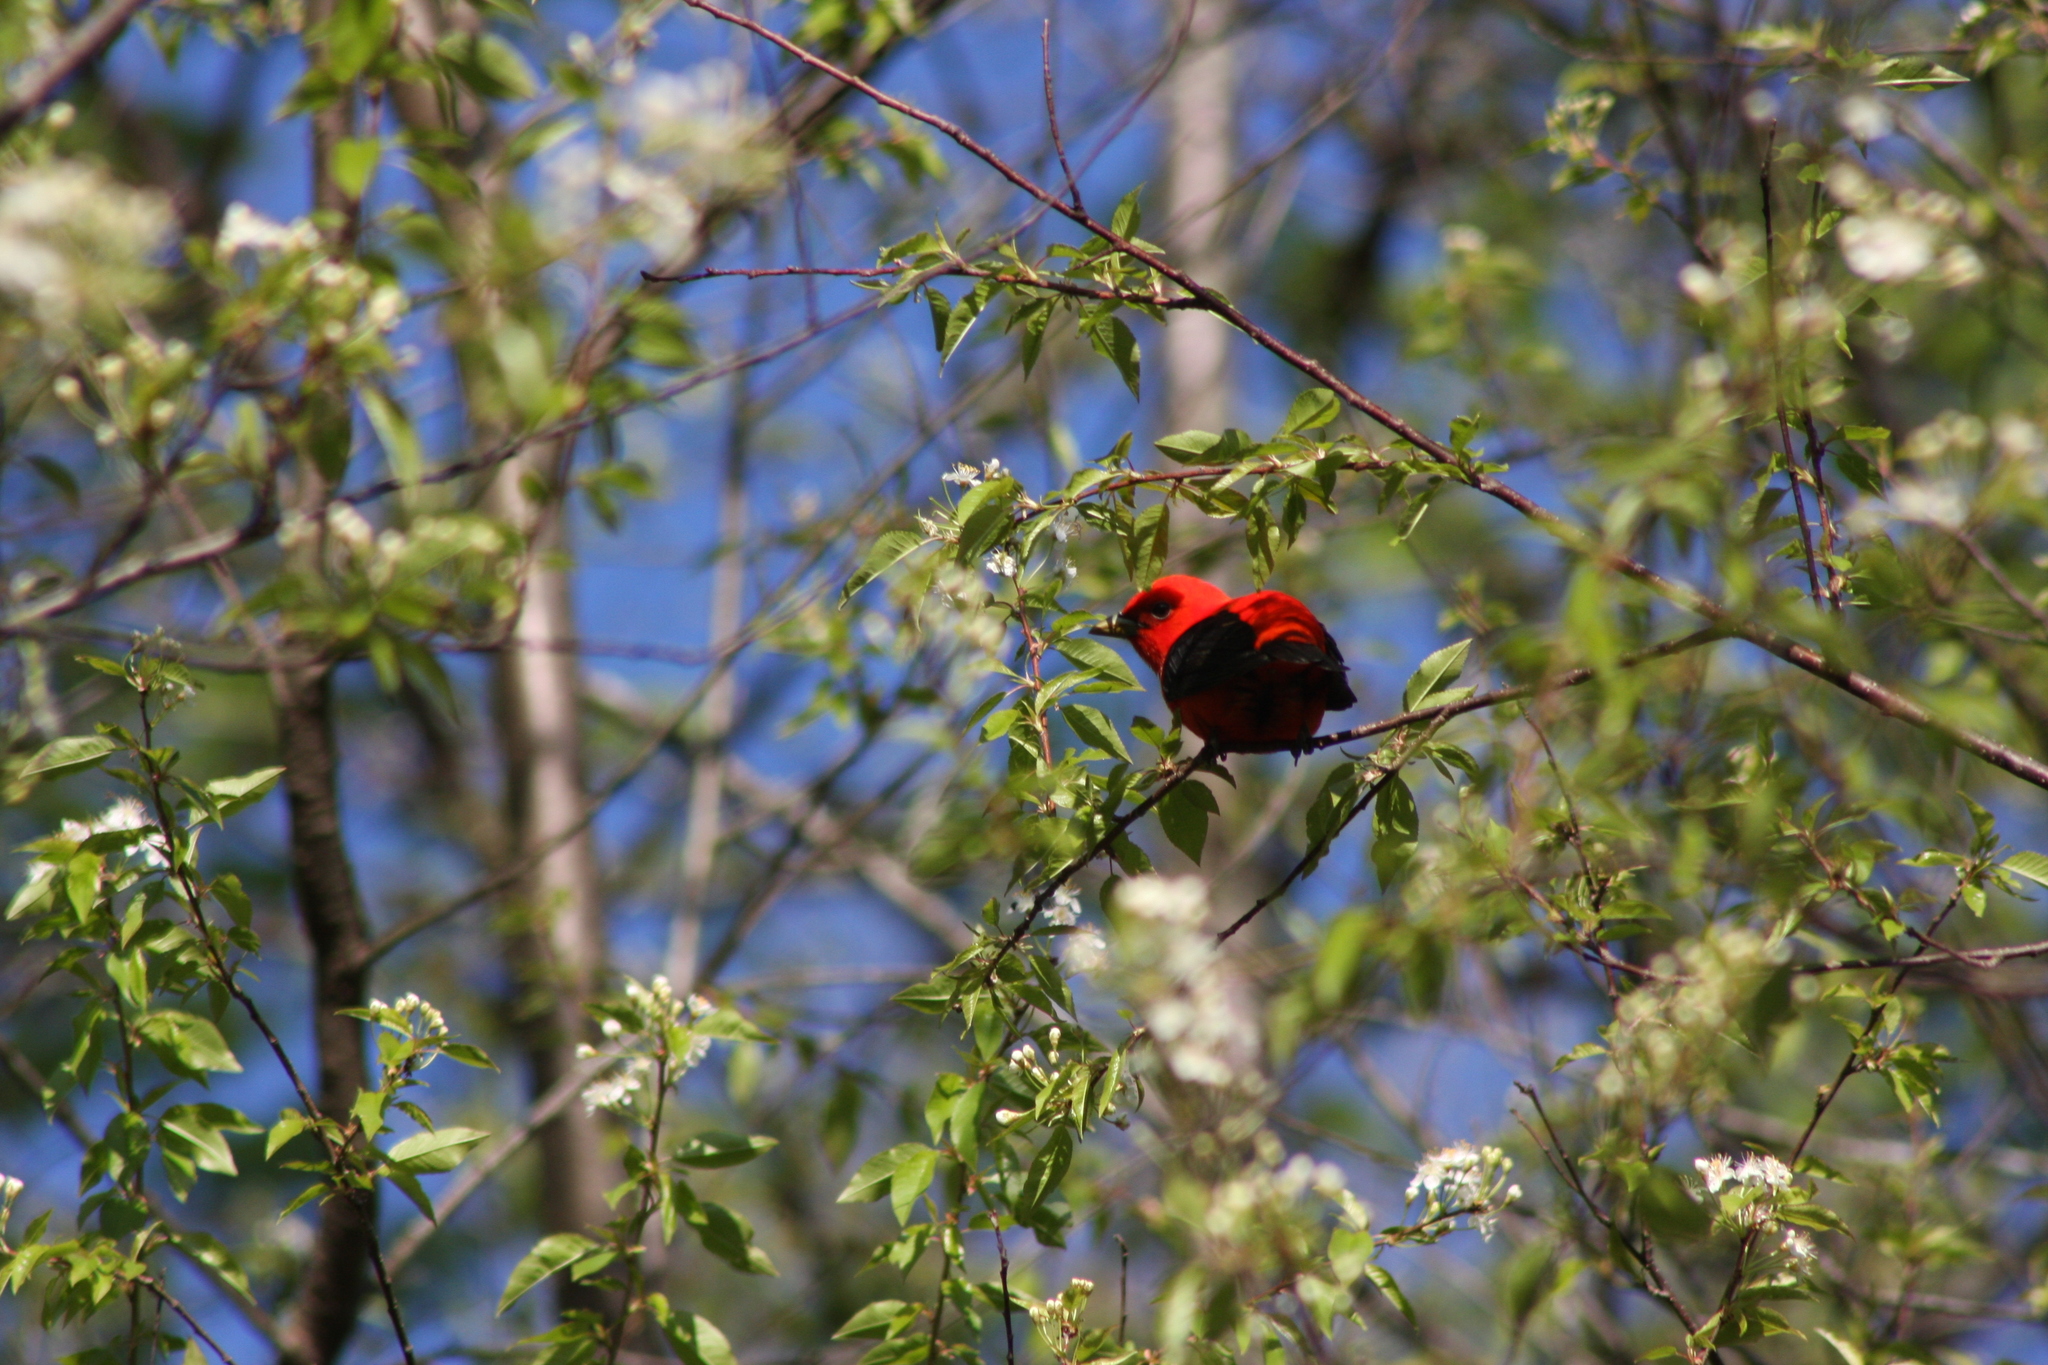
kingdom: Animalia
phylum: Chordata
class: Aves
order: Passeriformes
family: Cardinalidae
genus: Piranga
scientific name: Piranga olivacea
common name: Scarlet tanager
